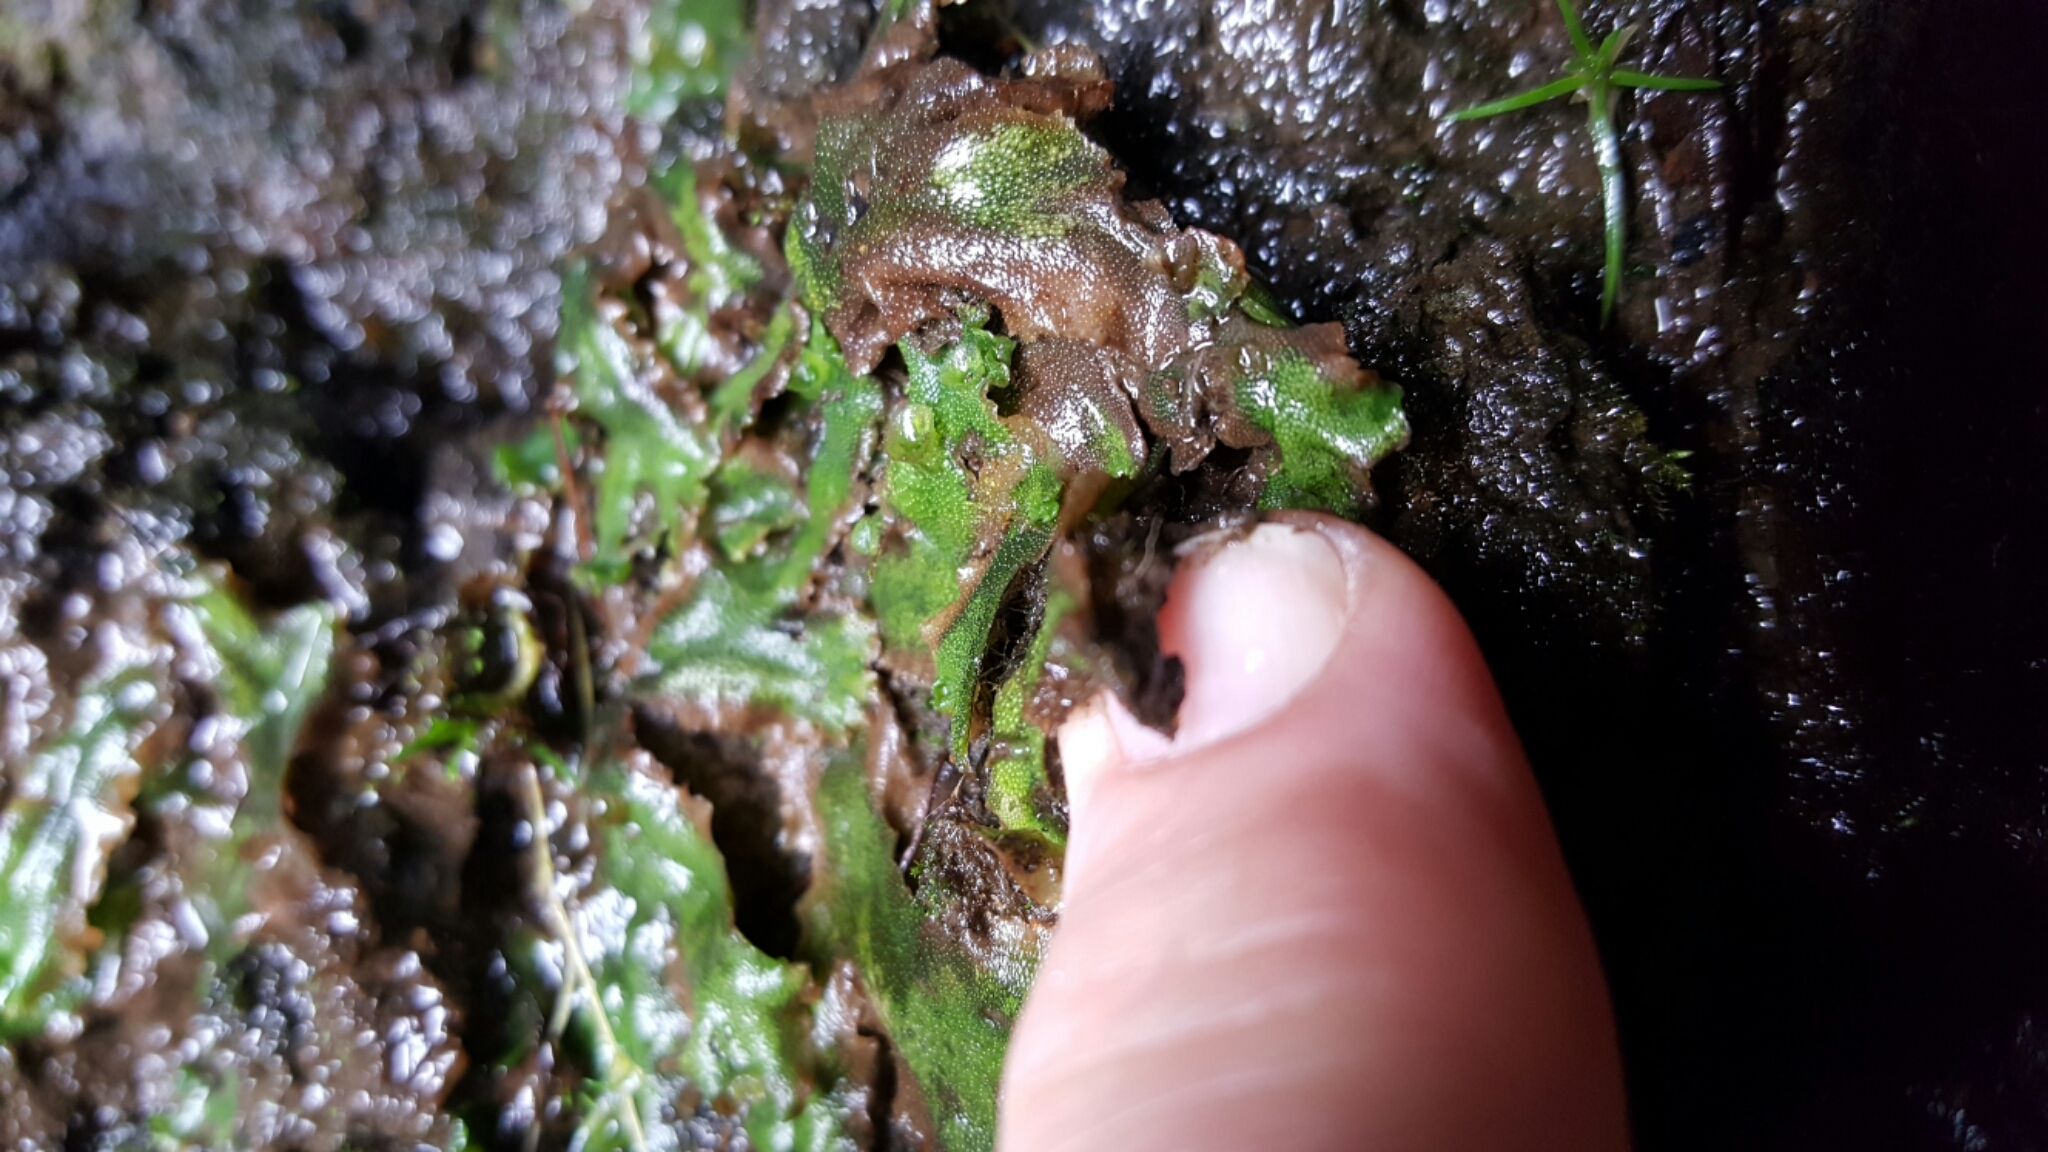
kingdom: Plantae
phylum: Marchantiophyta
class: Marchantiopsida
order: Marchantiales
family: Marchantiaceae
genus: Marchantia
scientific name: Marchantia polymorpha
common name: Common liverwort
